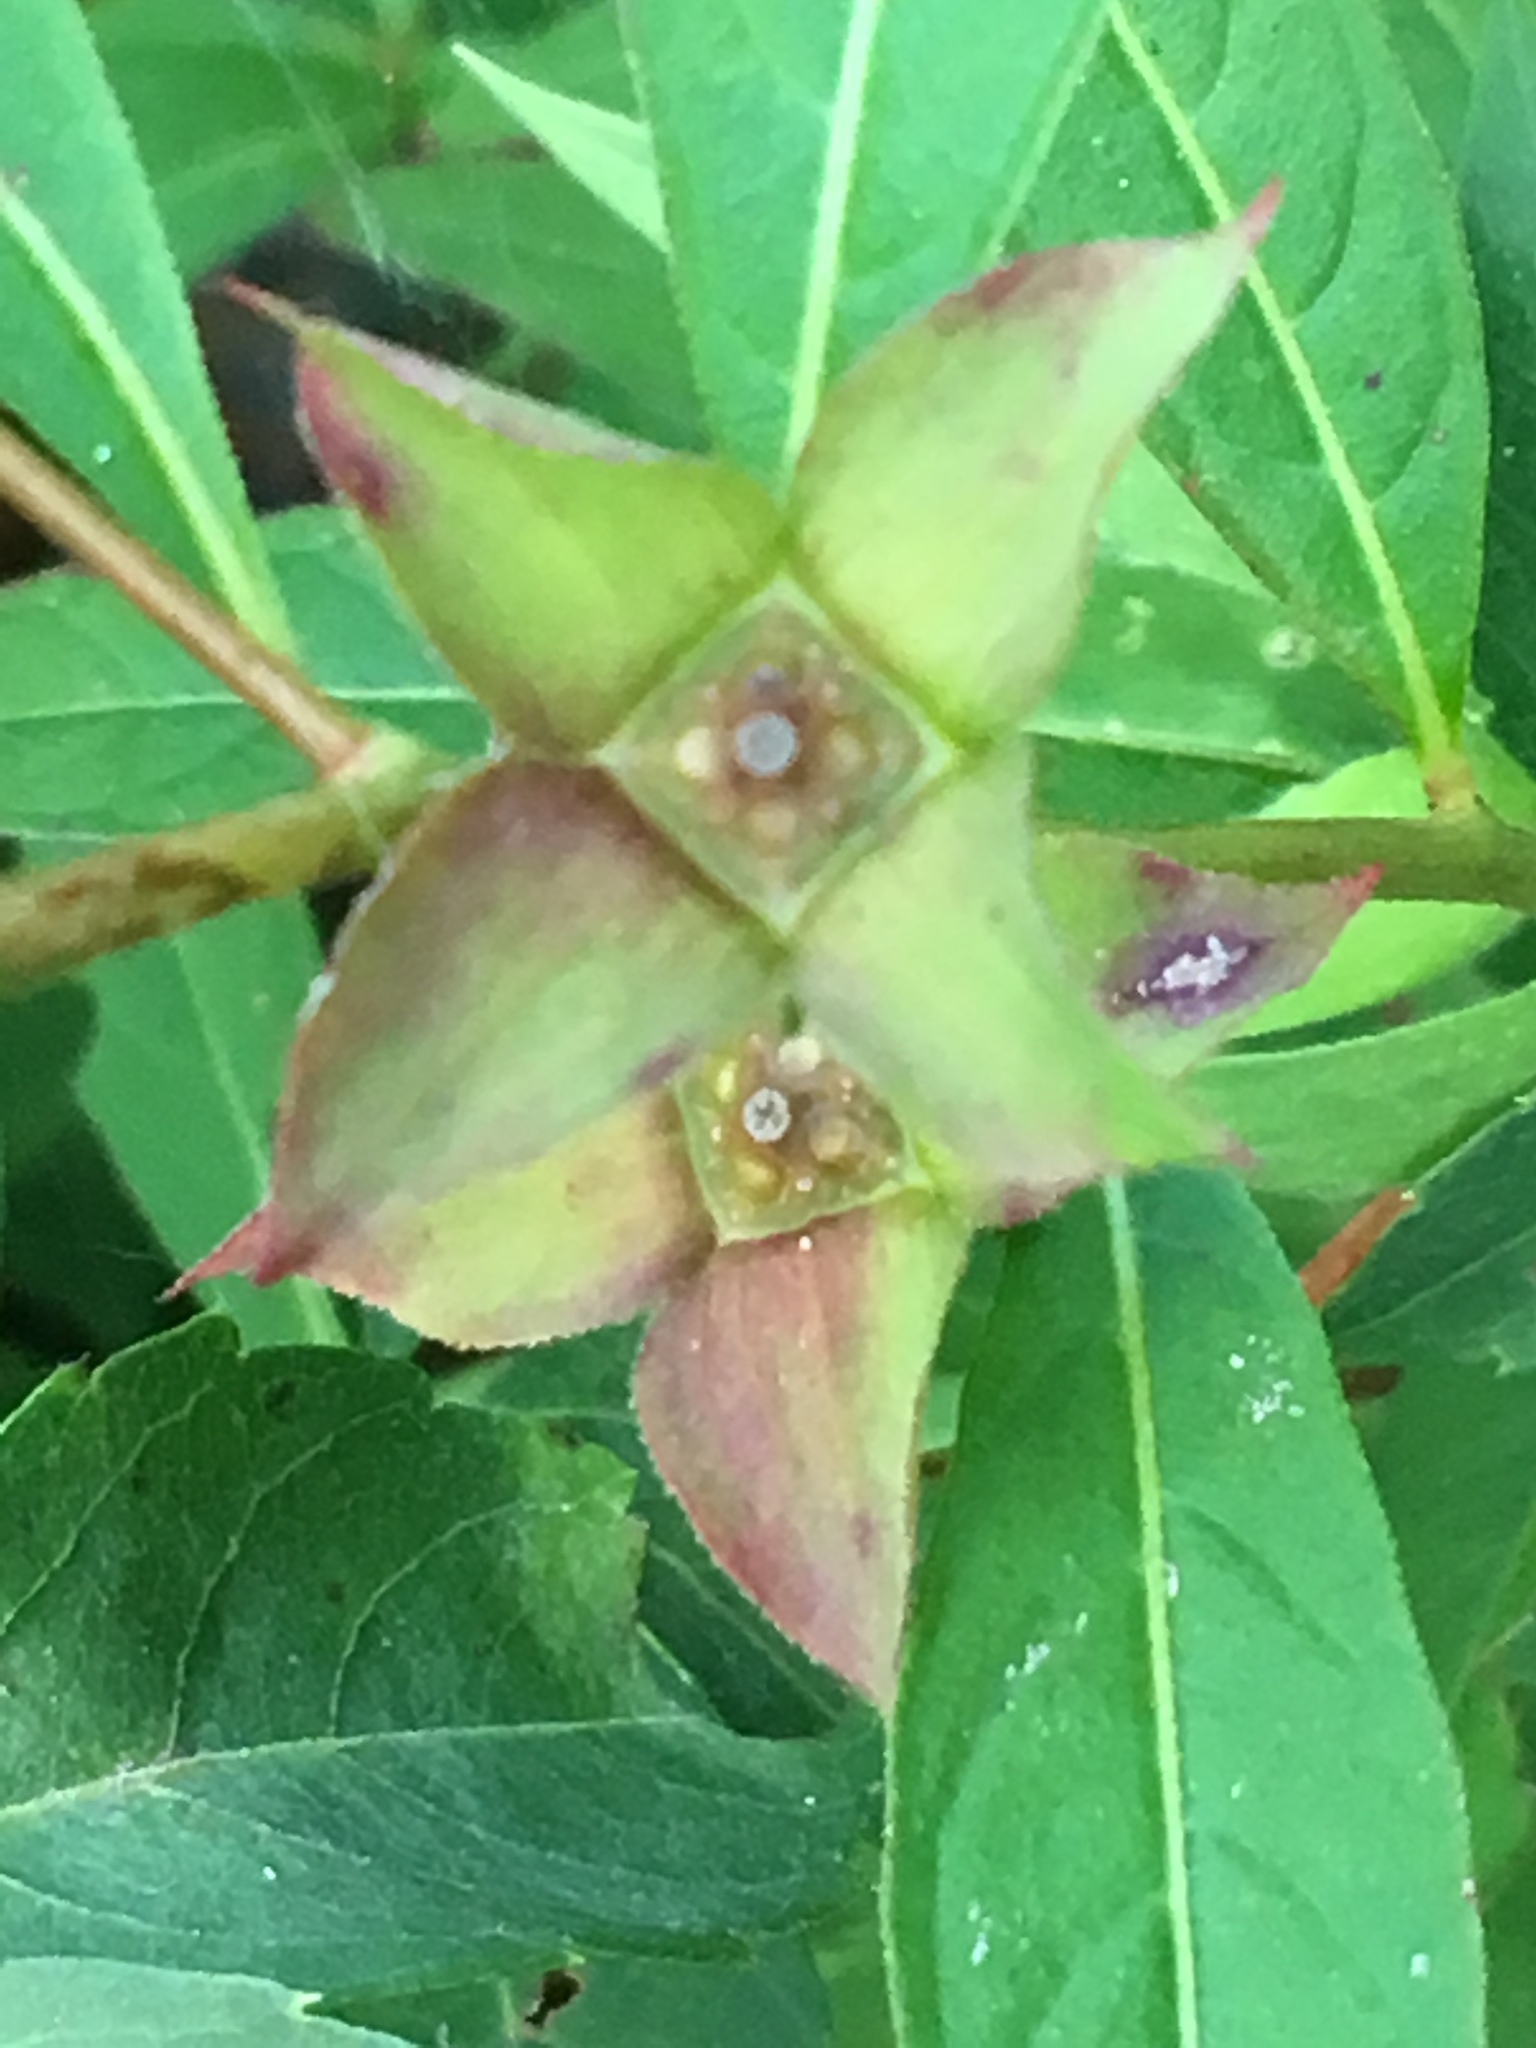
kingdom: Plantae
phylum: Tracheophyta
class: Magnoliopsida
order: Myrtales
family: Onagraceae
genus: Ludwigia
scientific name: Ludwigia alternifolia
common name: Rattlebox
